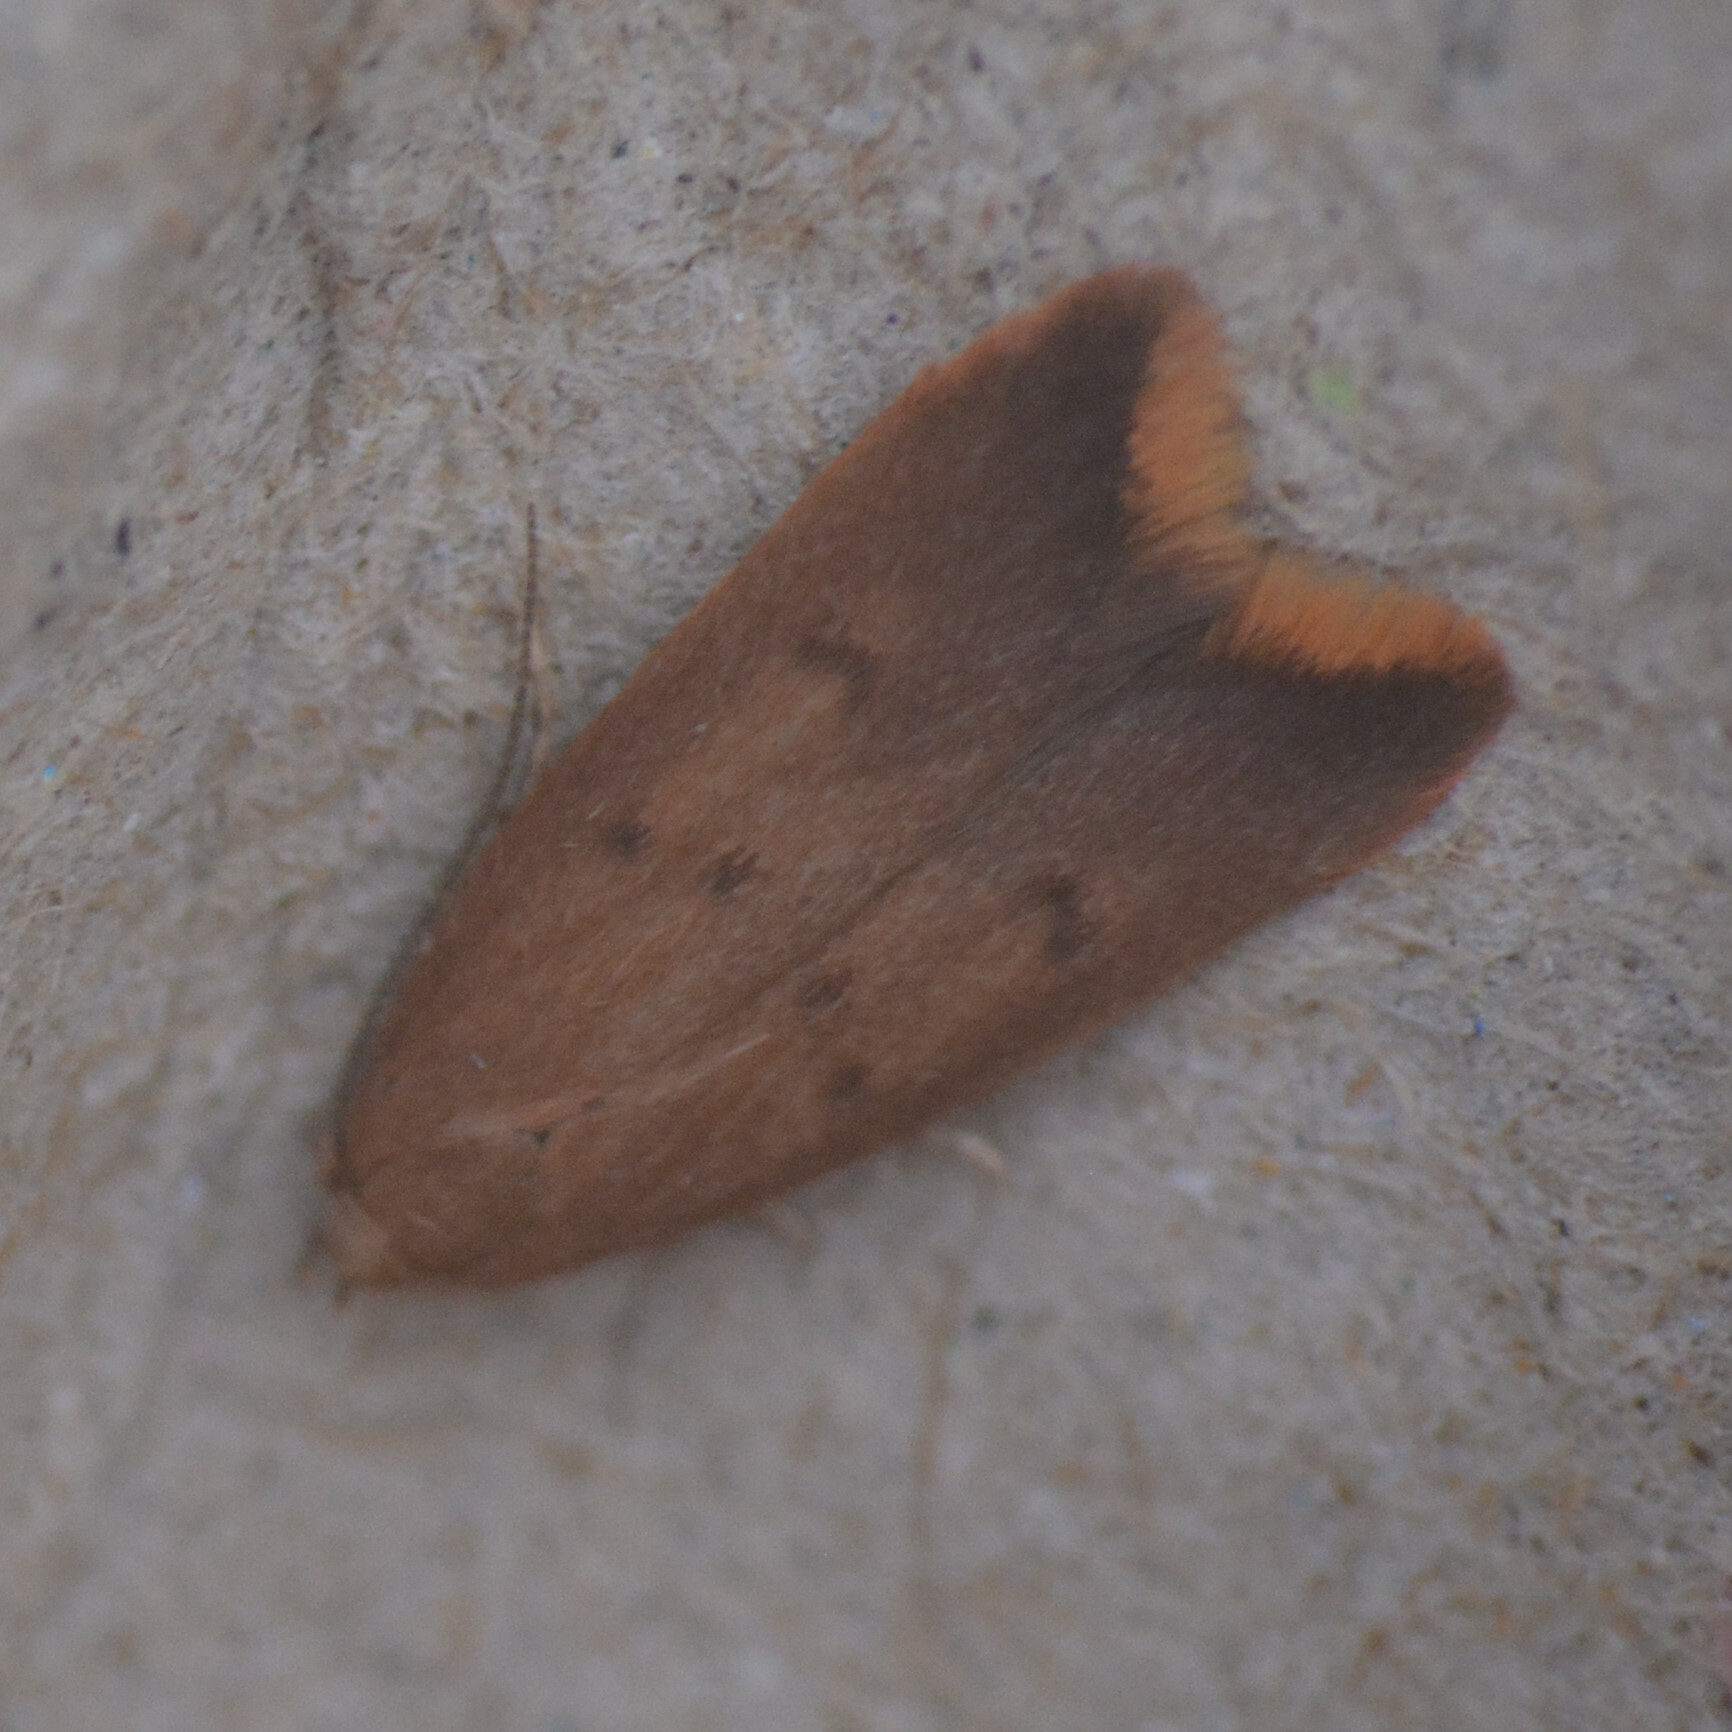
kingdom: Animalia
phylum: Arthropoda
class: Insecta
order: Lepidoptera
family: Oecophoridae
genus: Tachystola
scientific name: Tachystola acroxantha
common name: Ruddy streak
